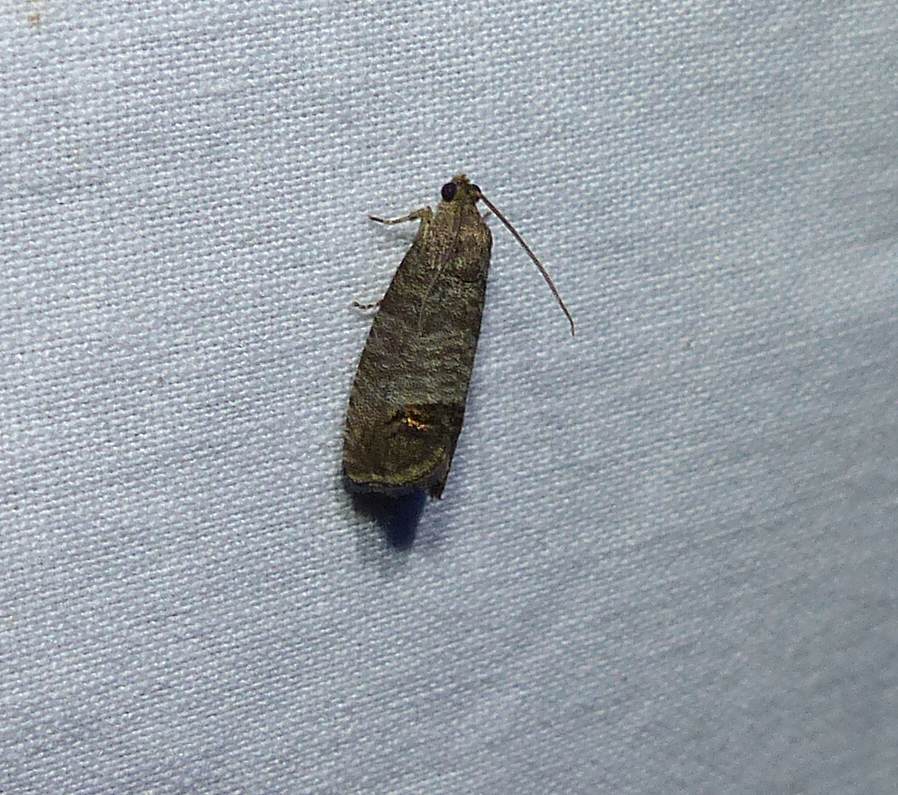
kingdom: Animalia
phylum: Arthropoda
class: Insecta
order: Lepidoptera
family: Tortricidae
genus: Cydia
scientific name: Cydia pomonella
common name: Codling moth
